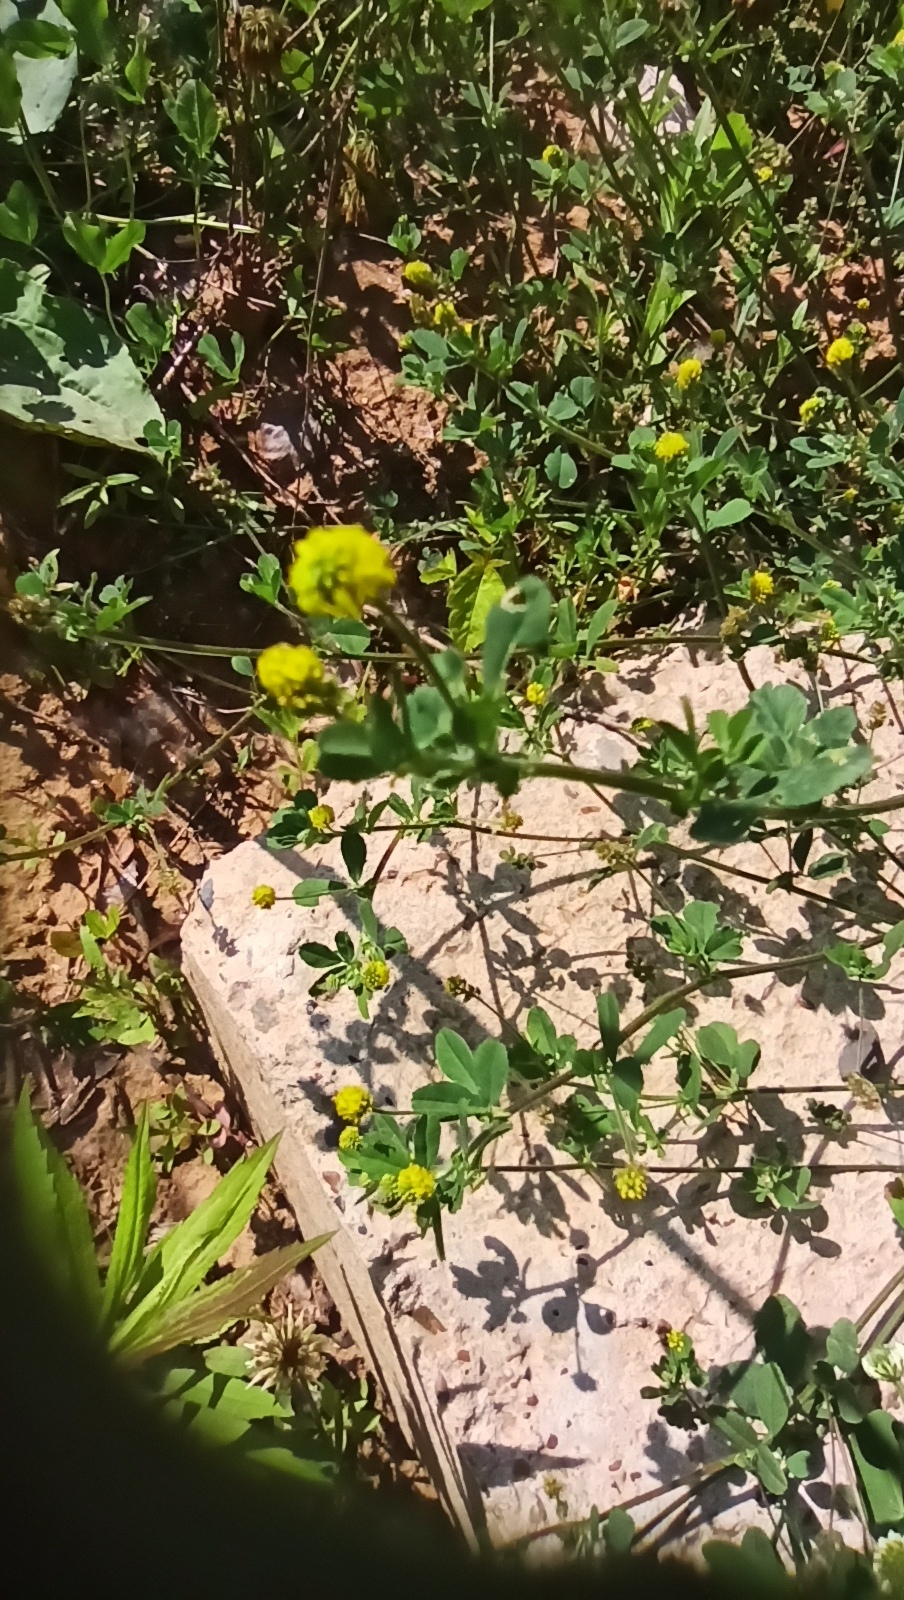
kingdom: Plantae
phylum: Tracheophyta
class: Magnoliopsida
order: Fabales
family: Fabaceae
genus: Medicago
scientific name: Medicago lupulina
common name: Black medick
